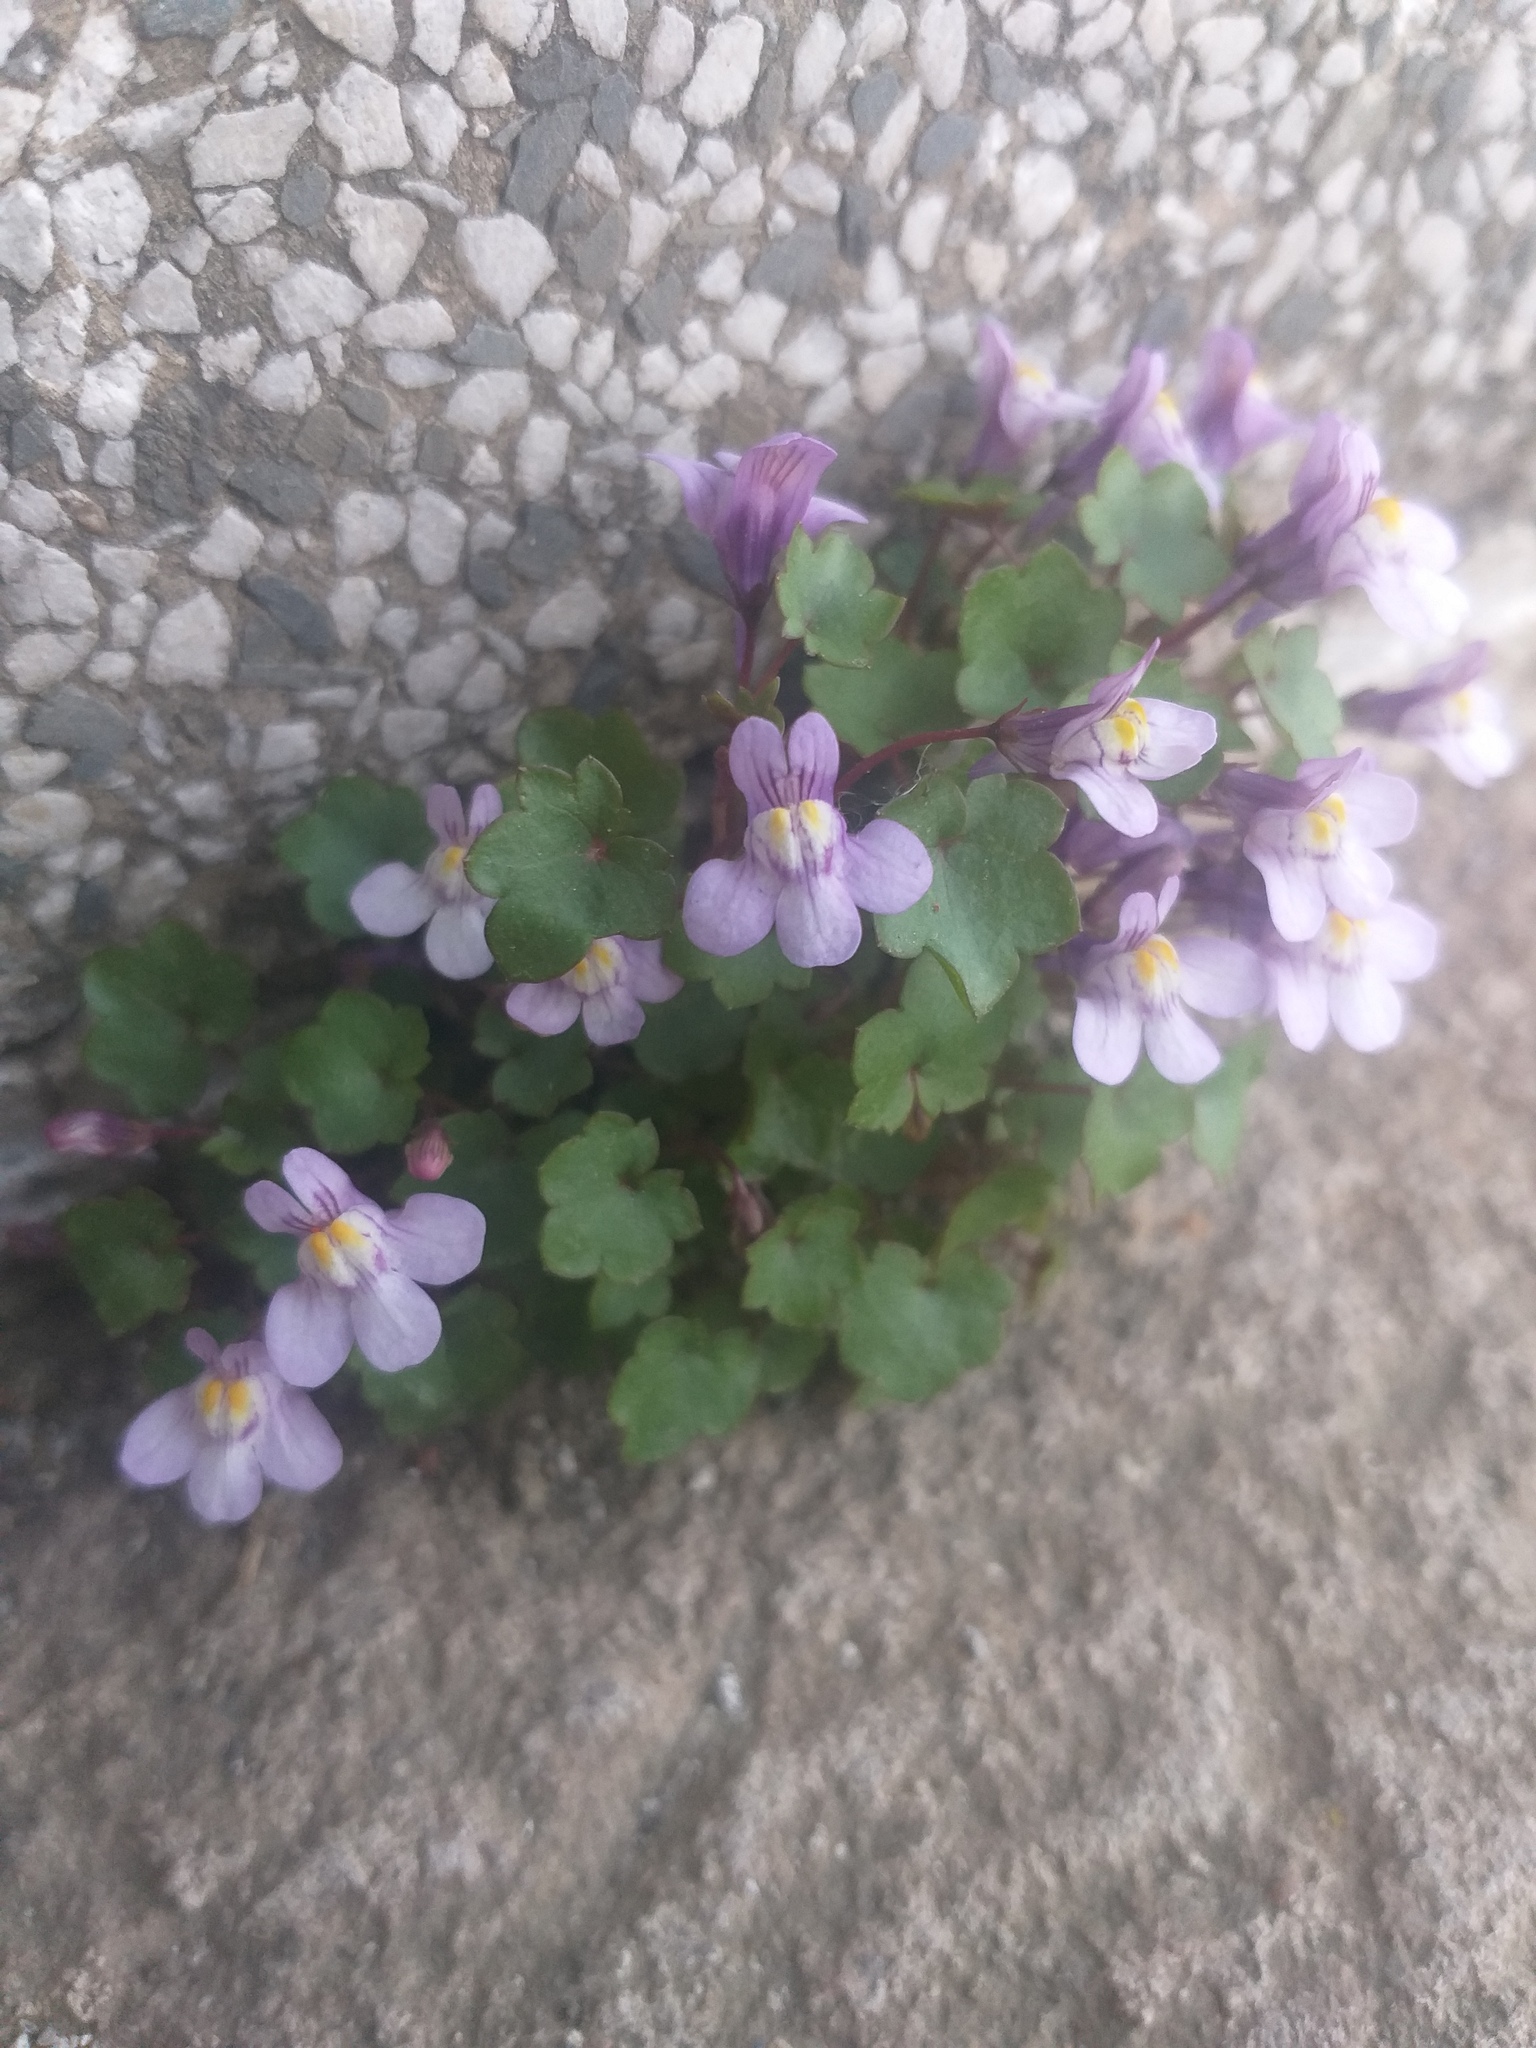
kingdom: Plantae
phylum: Tracheophyta
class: Magnoliopsida
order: Lamiales
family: Plantaginaceae
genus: Cymbalaria
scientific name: Cymbalaria muralis
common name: Ivy-leaved toadflax
